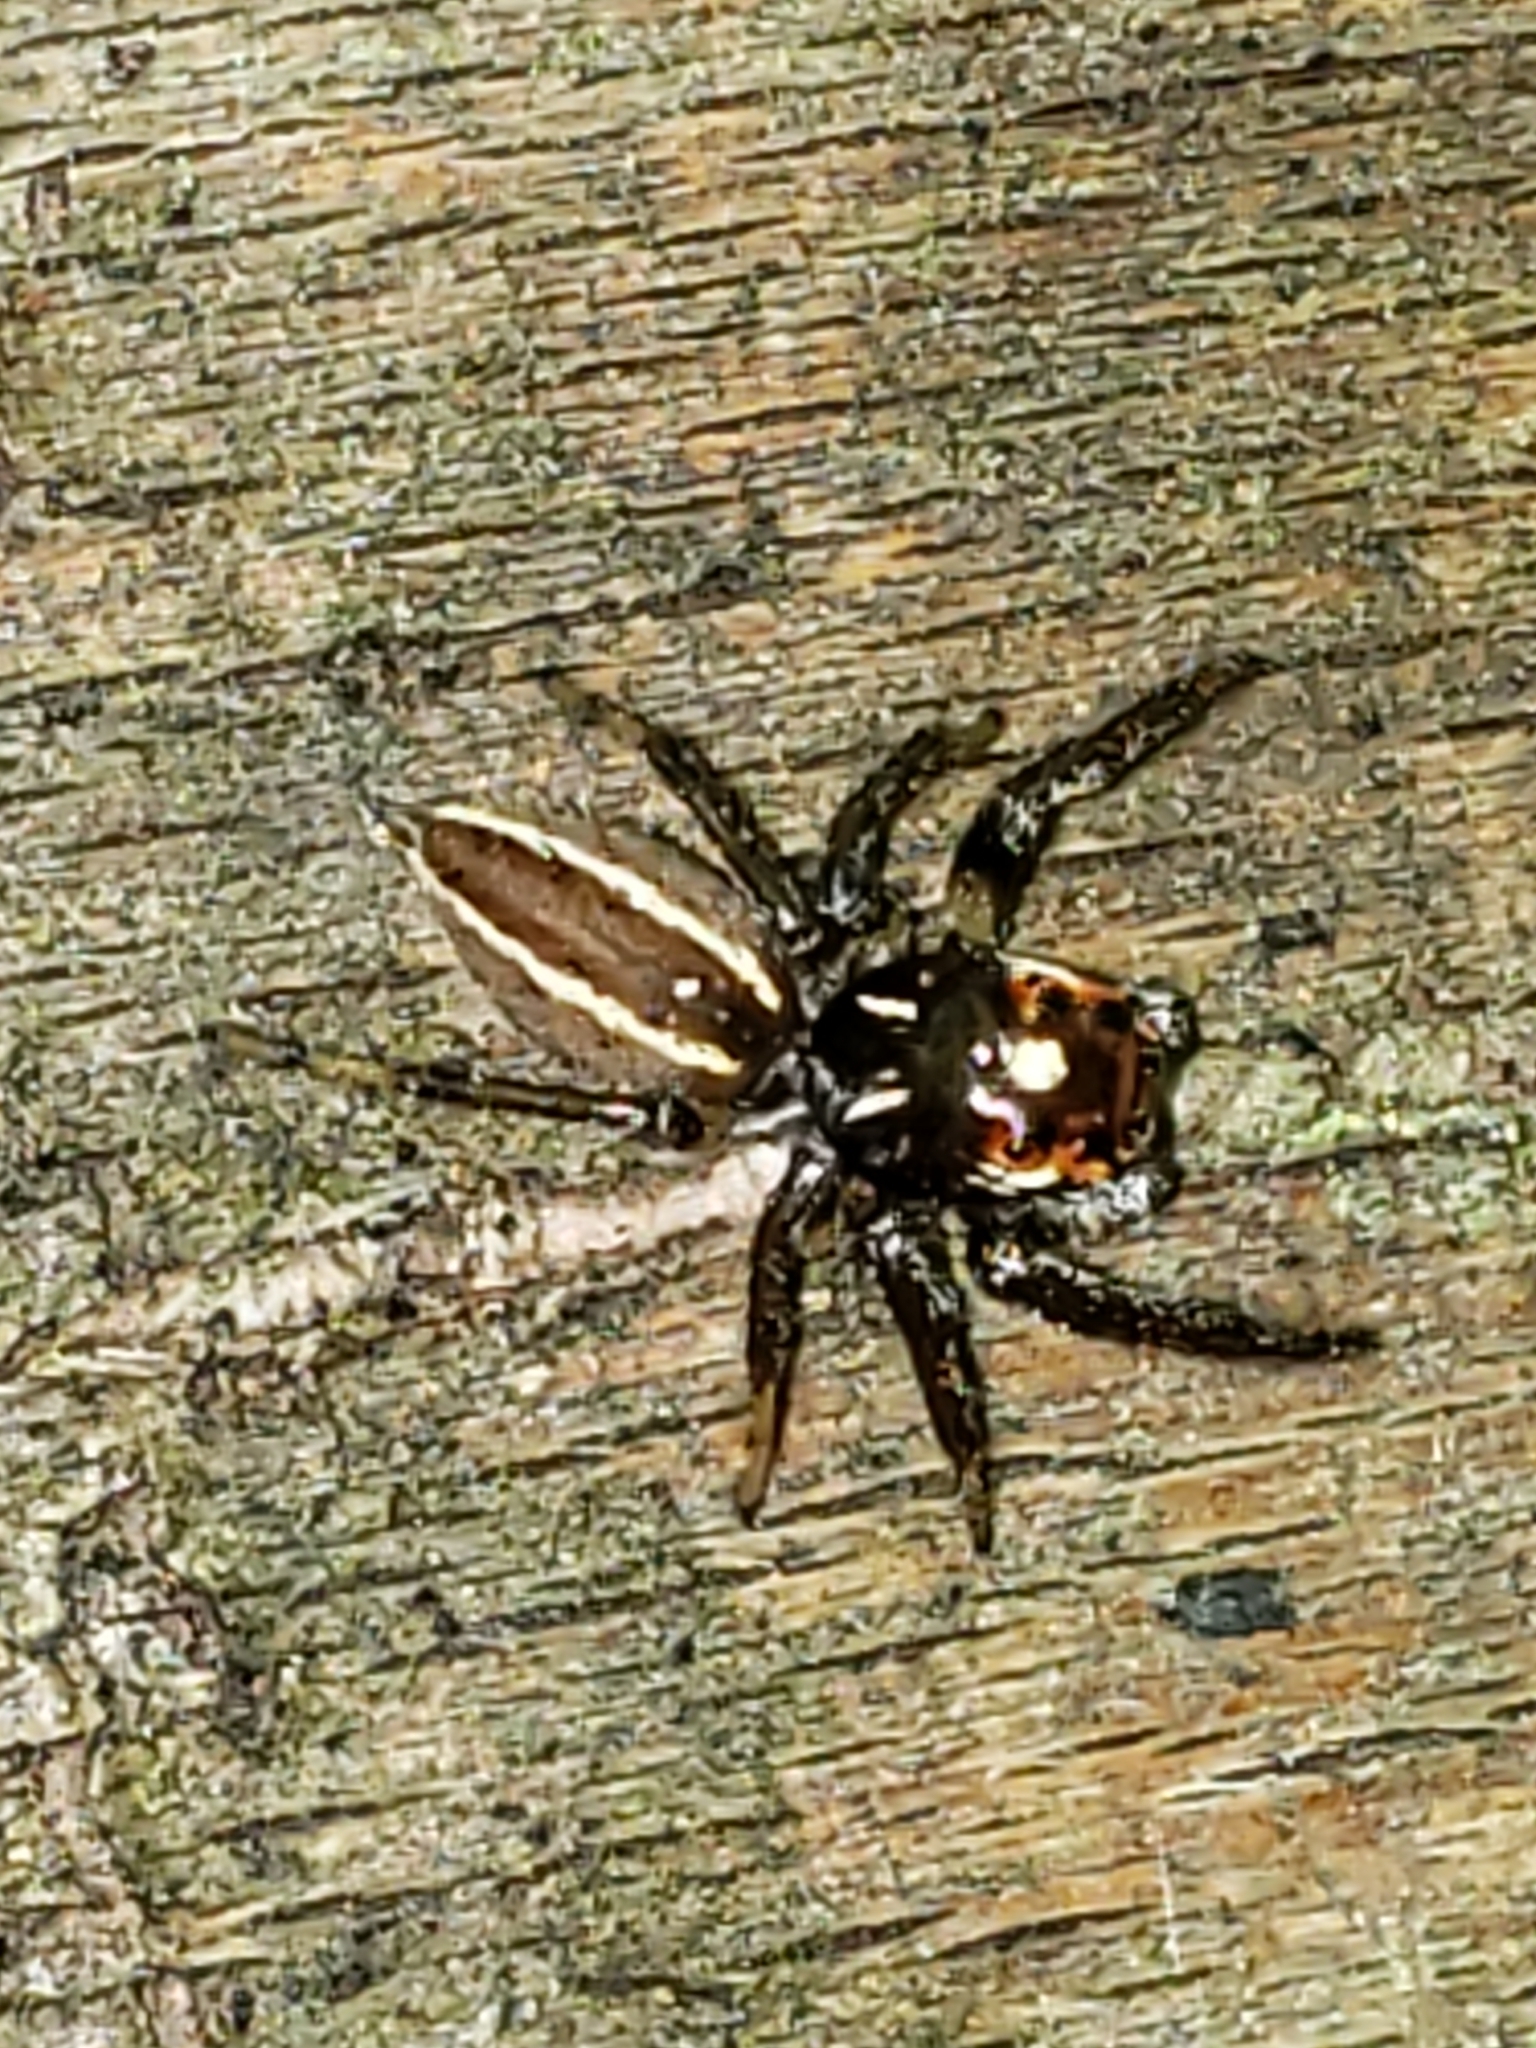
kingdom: Animalia
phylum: Arthropoda
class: Arachnida
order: Araneae
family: Salticidae
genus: Colonus
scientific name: Colonus sylvanus
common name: Jumping spiders
